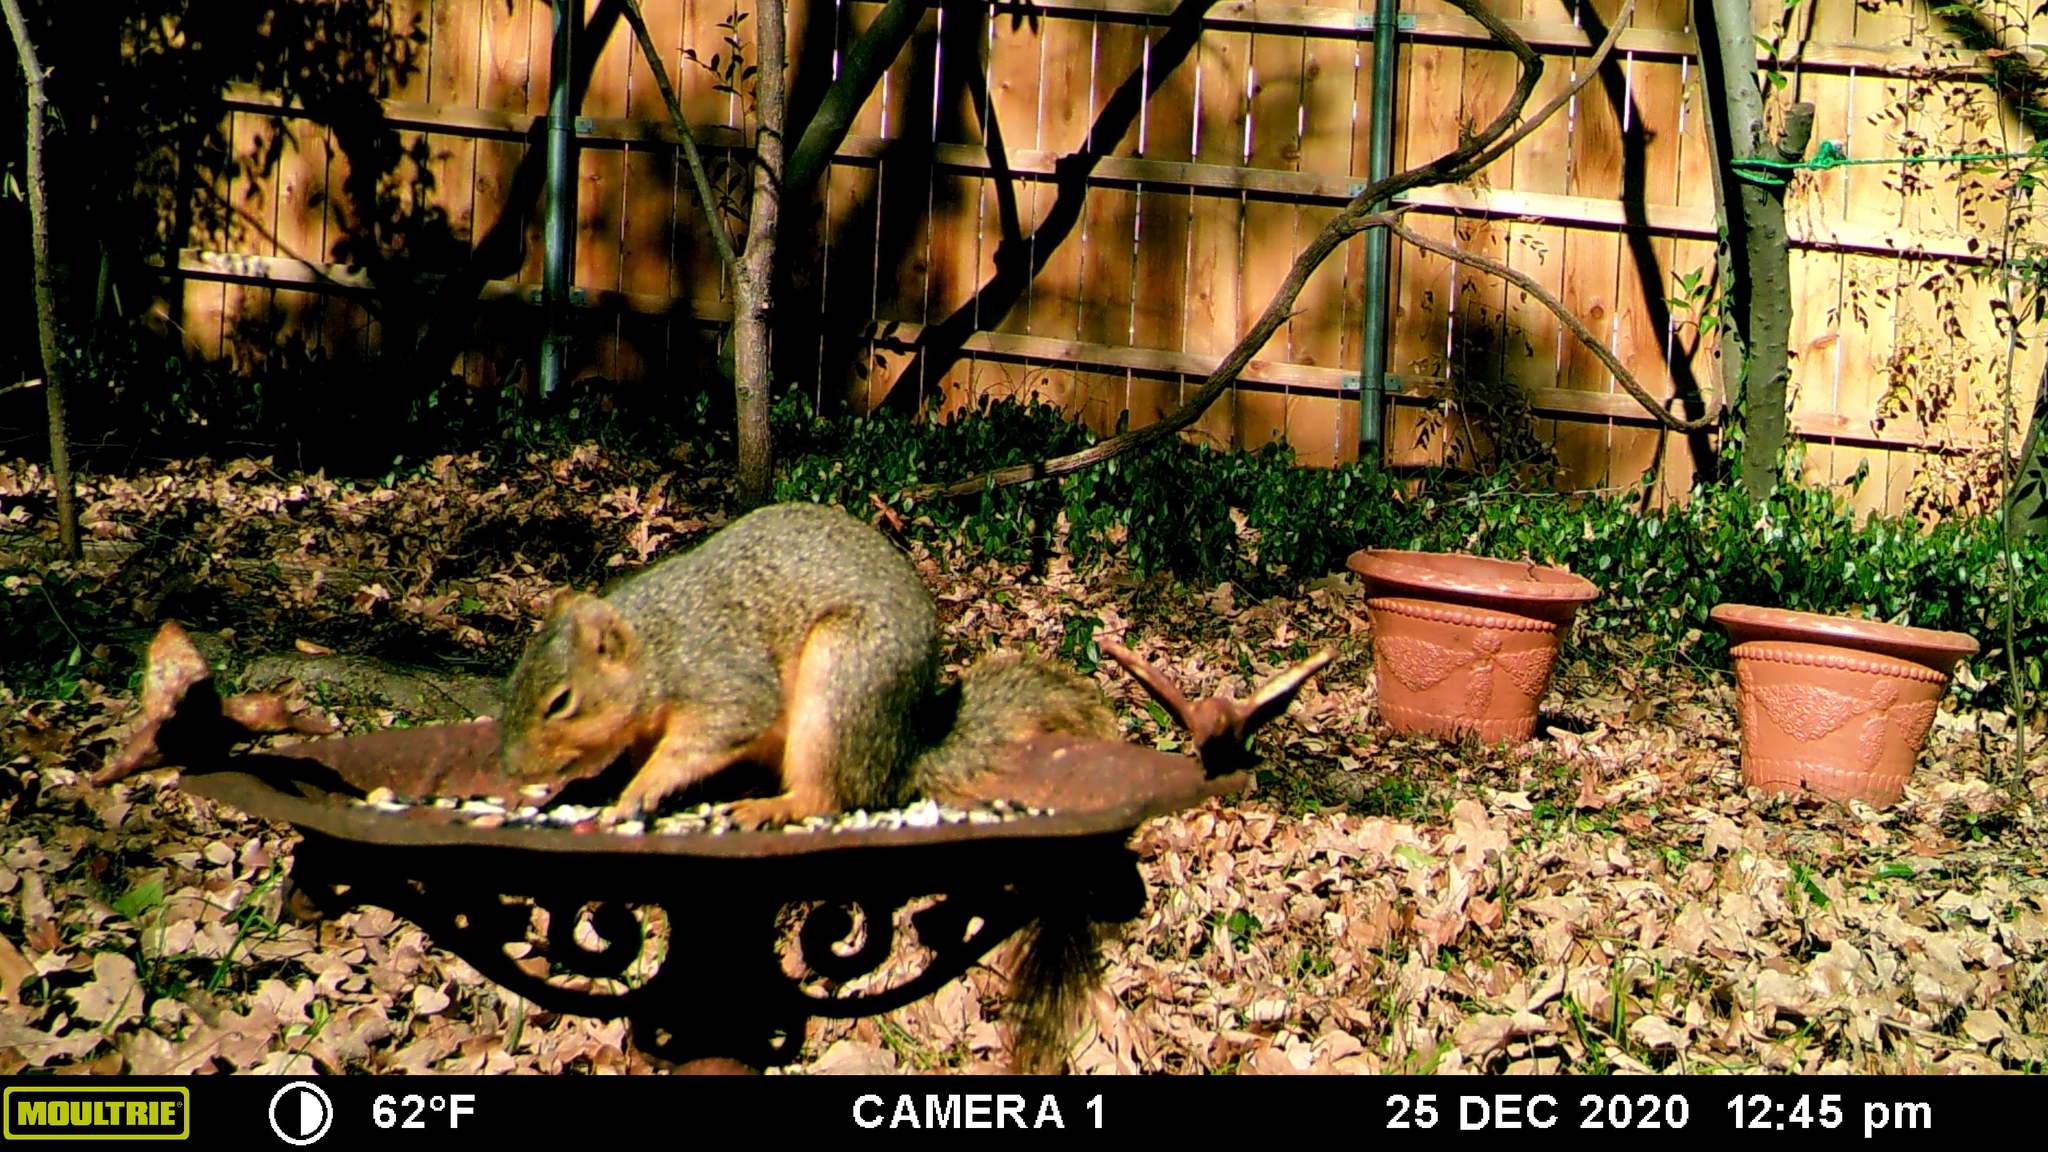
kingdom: Animalia
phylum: Chordata
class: Mammalia
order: Rodentia
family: Sciuridae
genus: Sciurus
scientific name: Sciurus niger
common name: Fox squirrel
